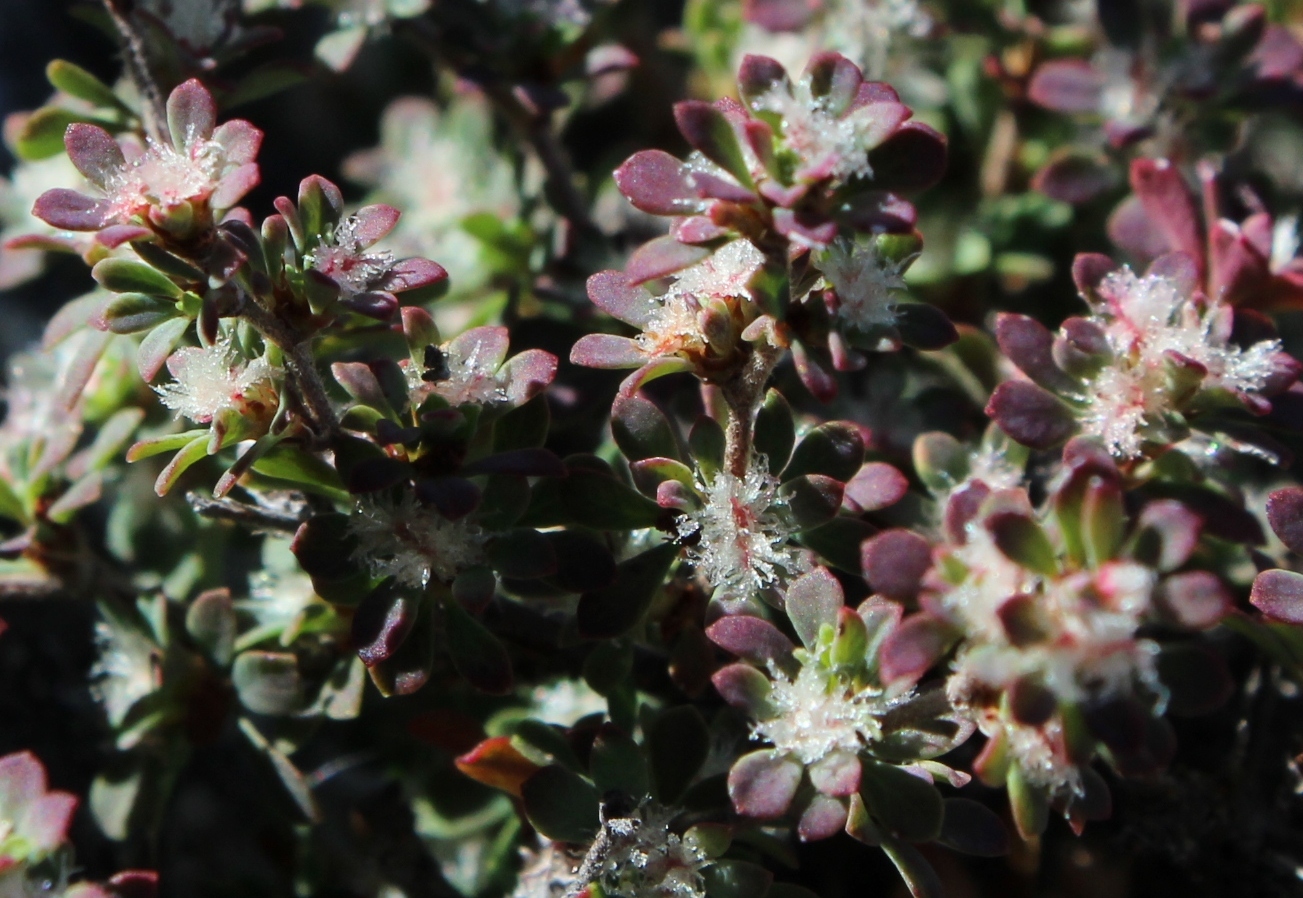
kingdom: Plantae
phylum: Tracheophyta
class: Magnoliopsida
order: Rosales
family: Rosaceae
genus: Cliffortia
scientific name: Cliffortia propinqua
